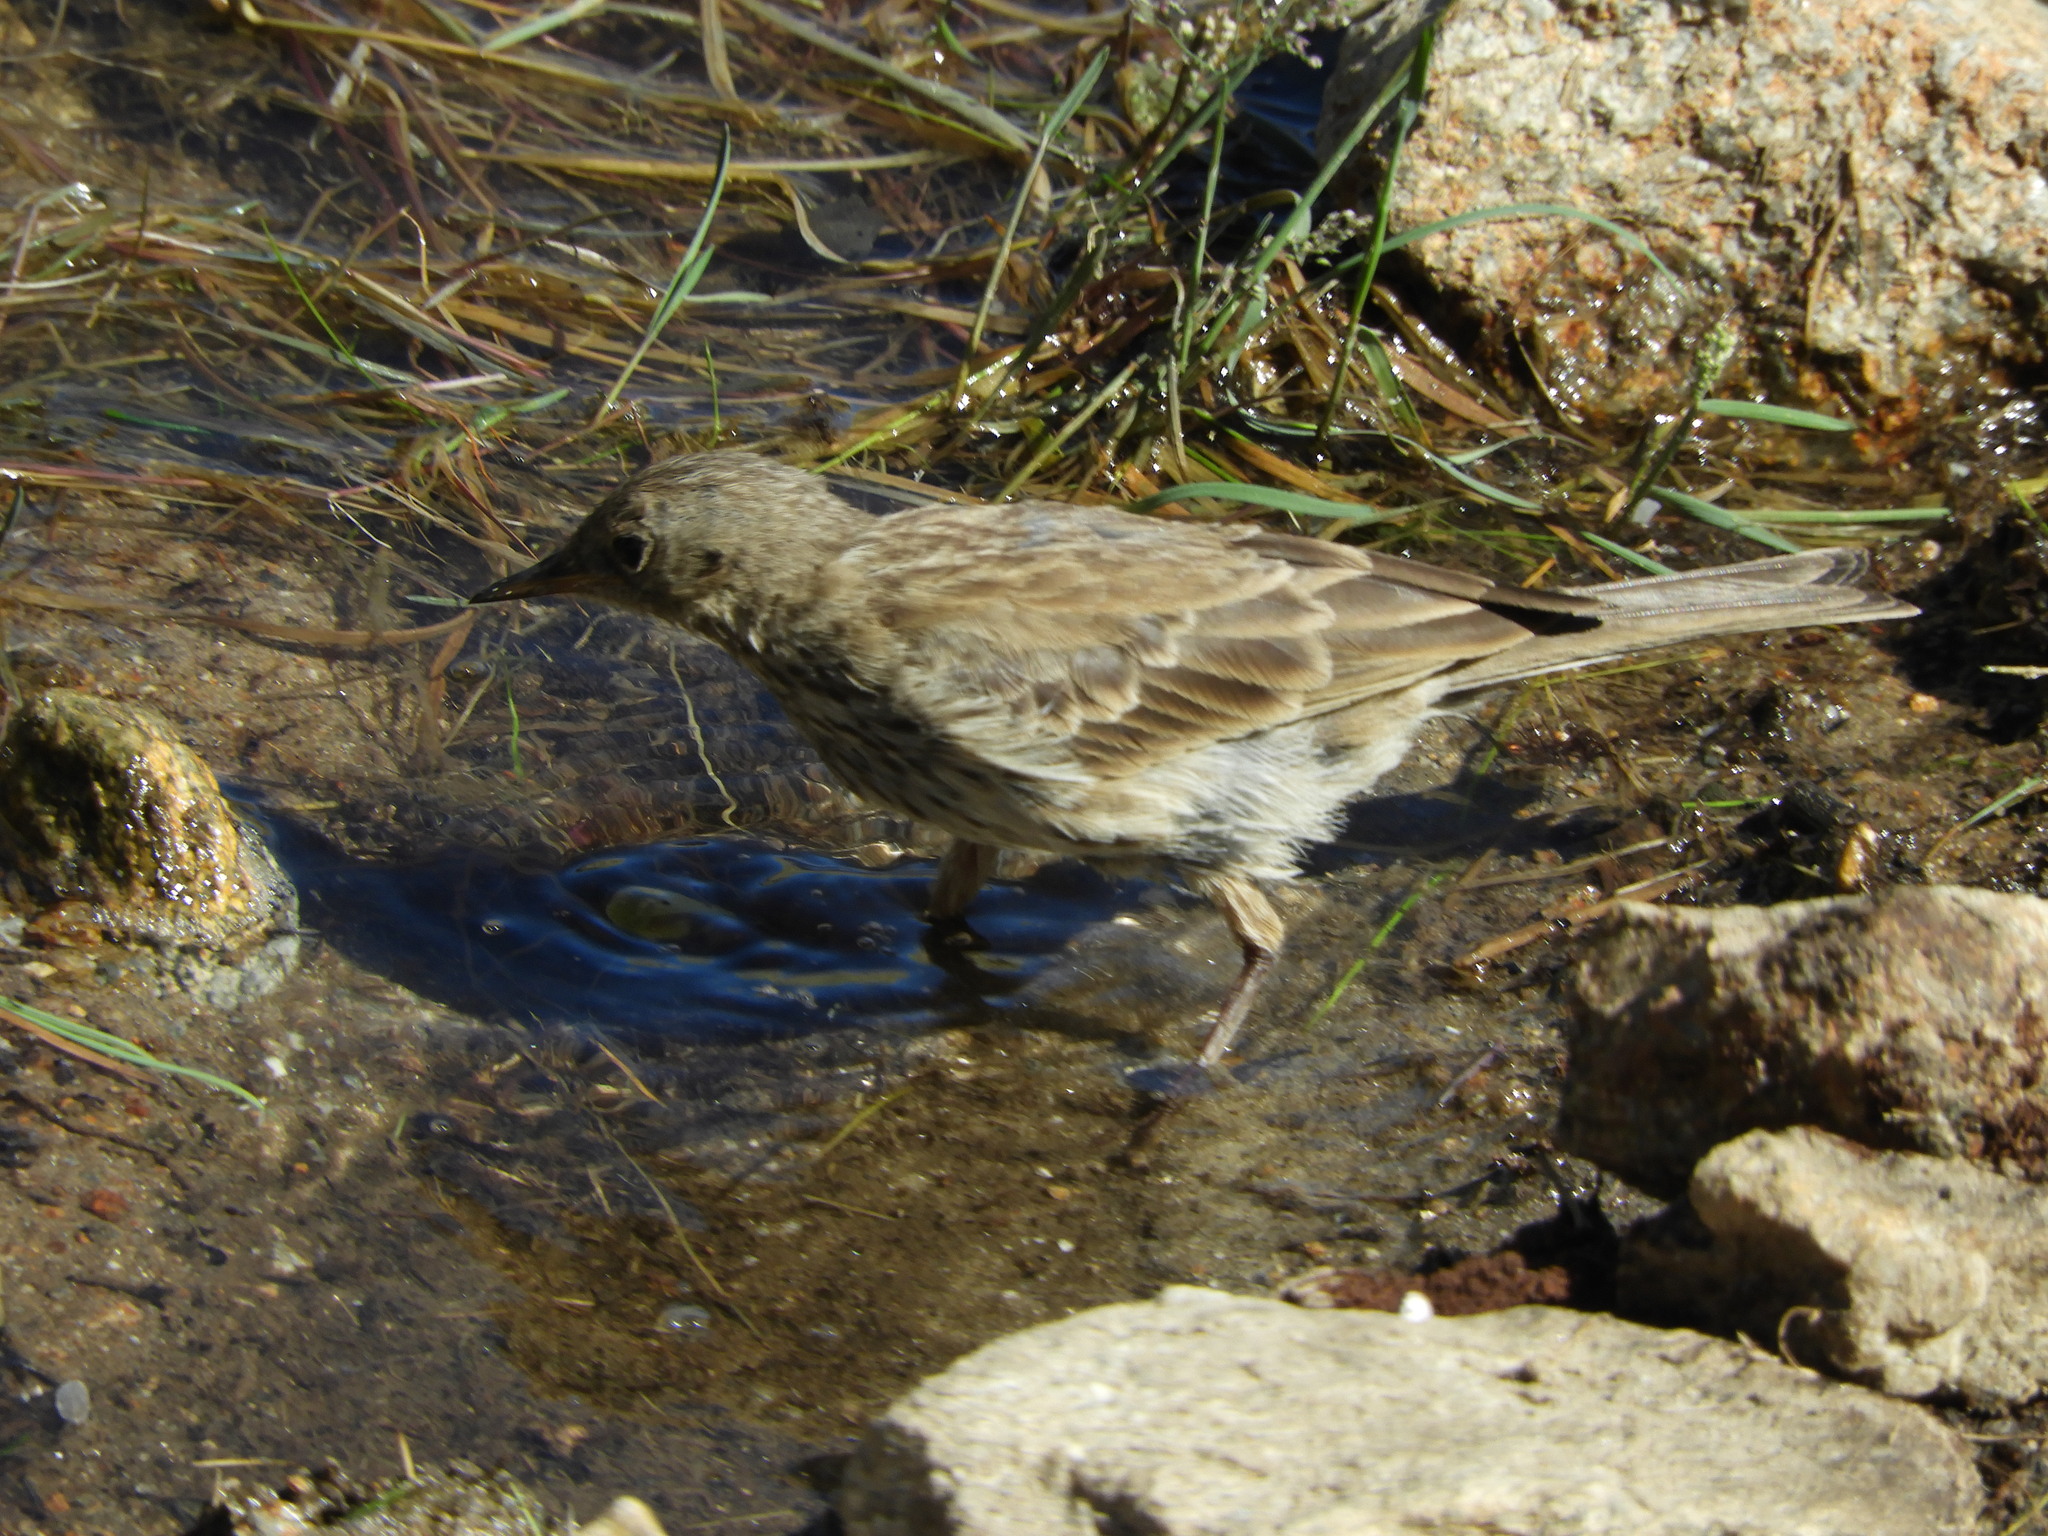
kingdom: Animalia
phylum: Chordata
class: Aves
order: Passeriformes
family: Motacillidae
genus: Anthus
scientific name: Anthus spinoletta
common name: Water pipit
